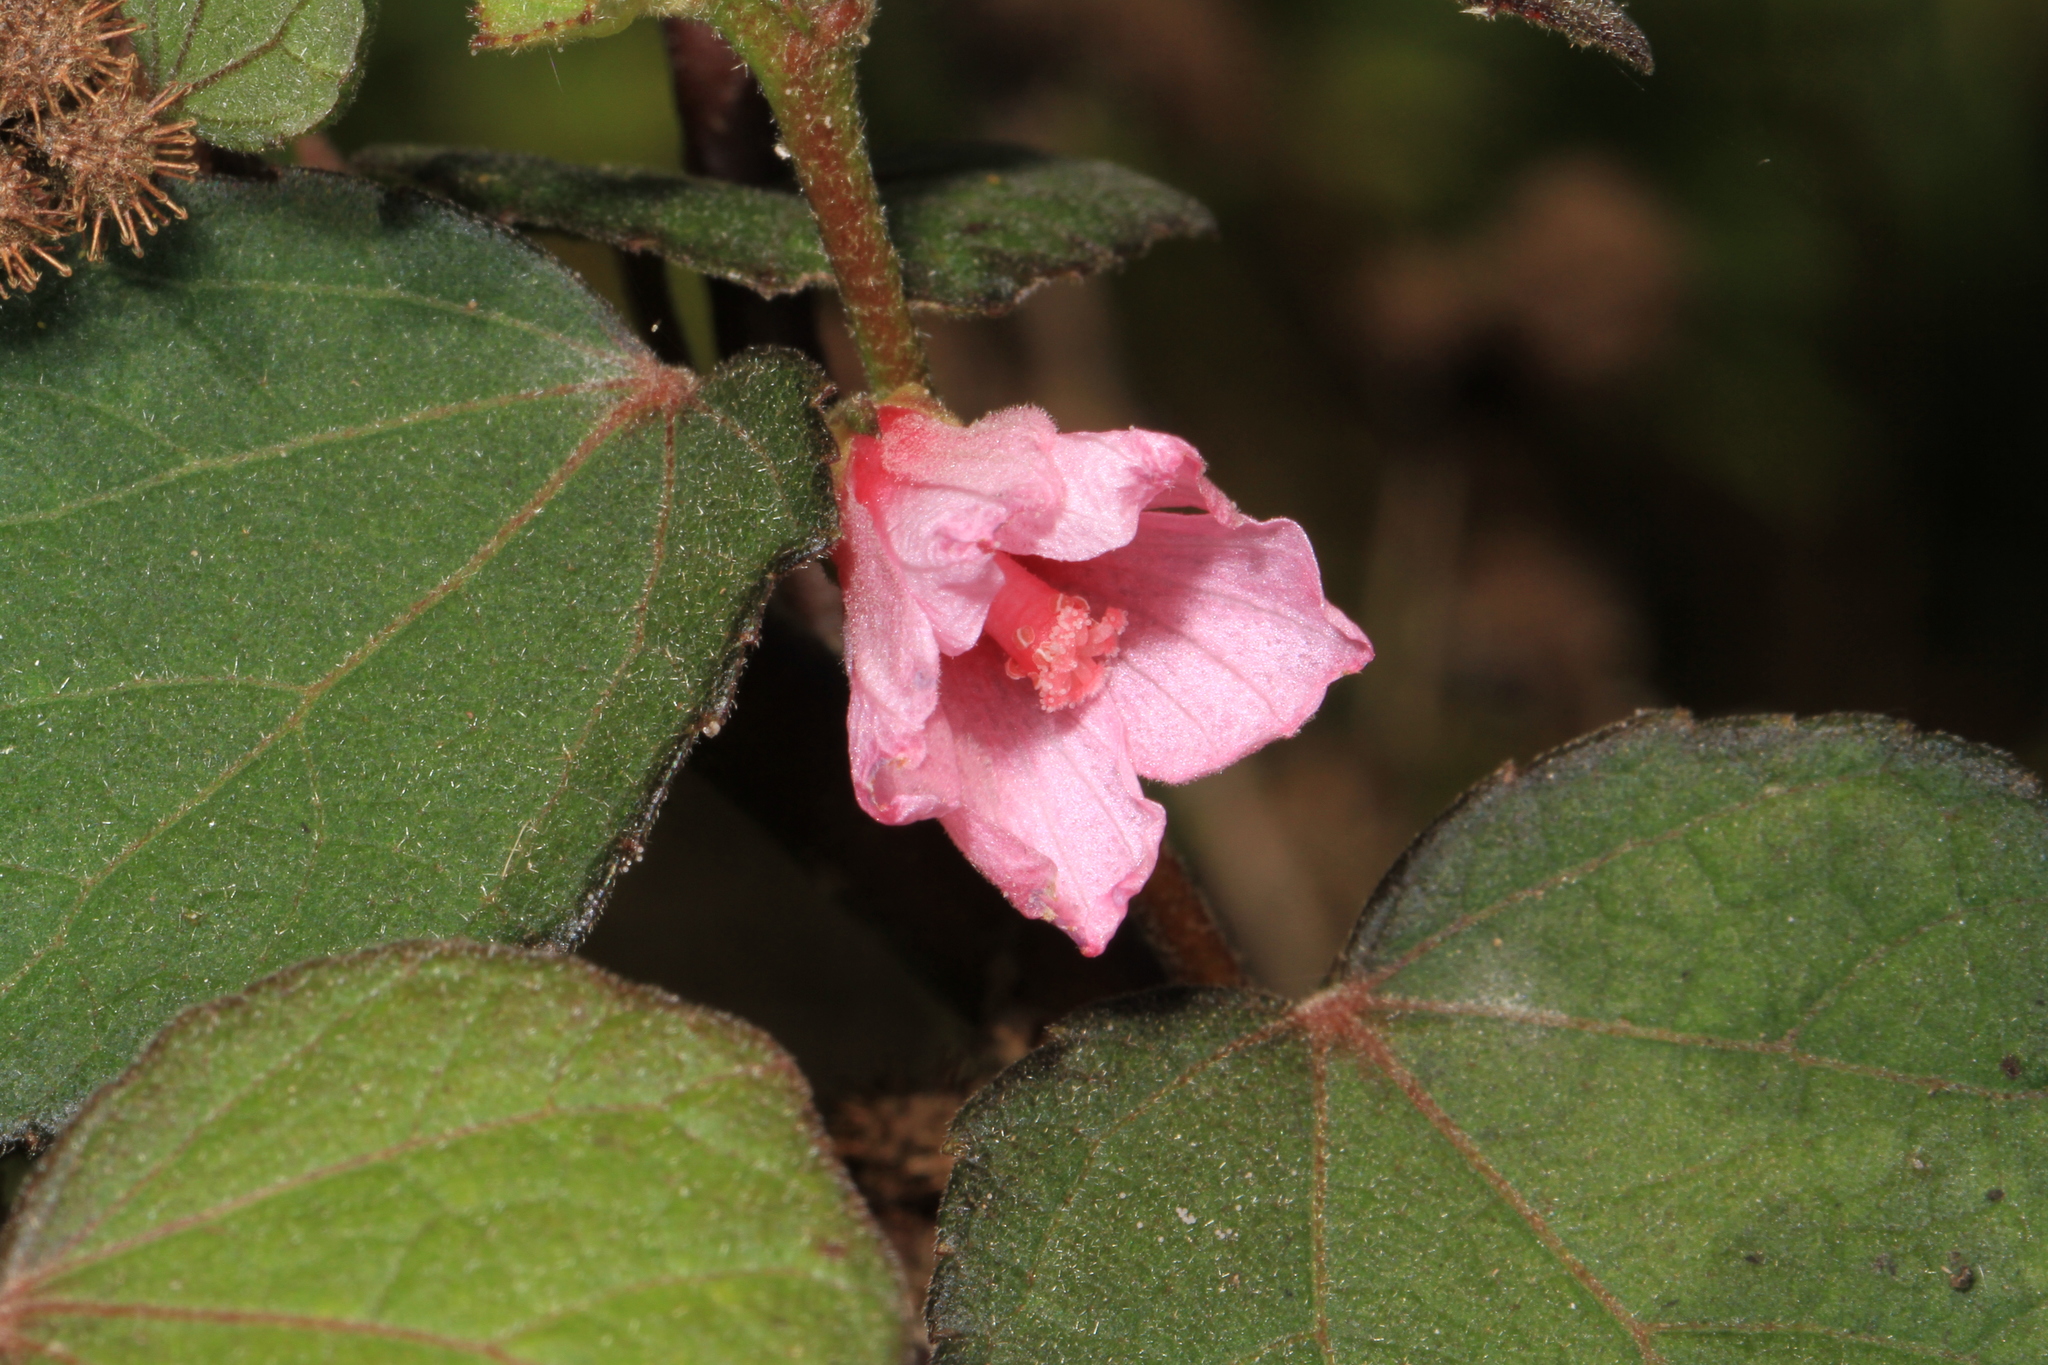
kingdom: Plantae
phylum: Tracheophyta
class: Magnoliopsida
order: Malvales
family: Malvaceae
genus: Urena
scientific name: Urena lobata
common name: Caesarweed
